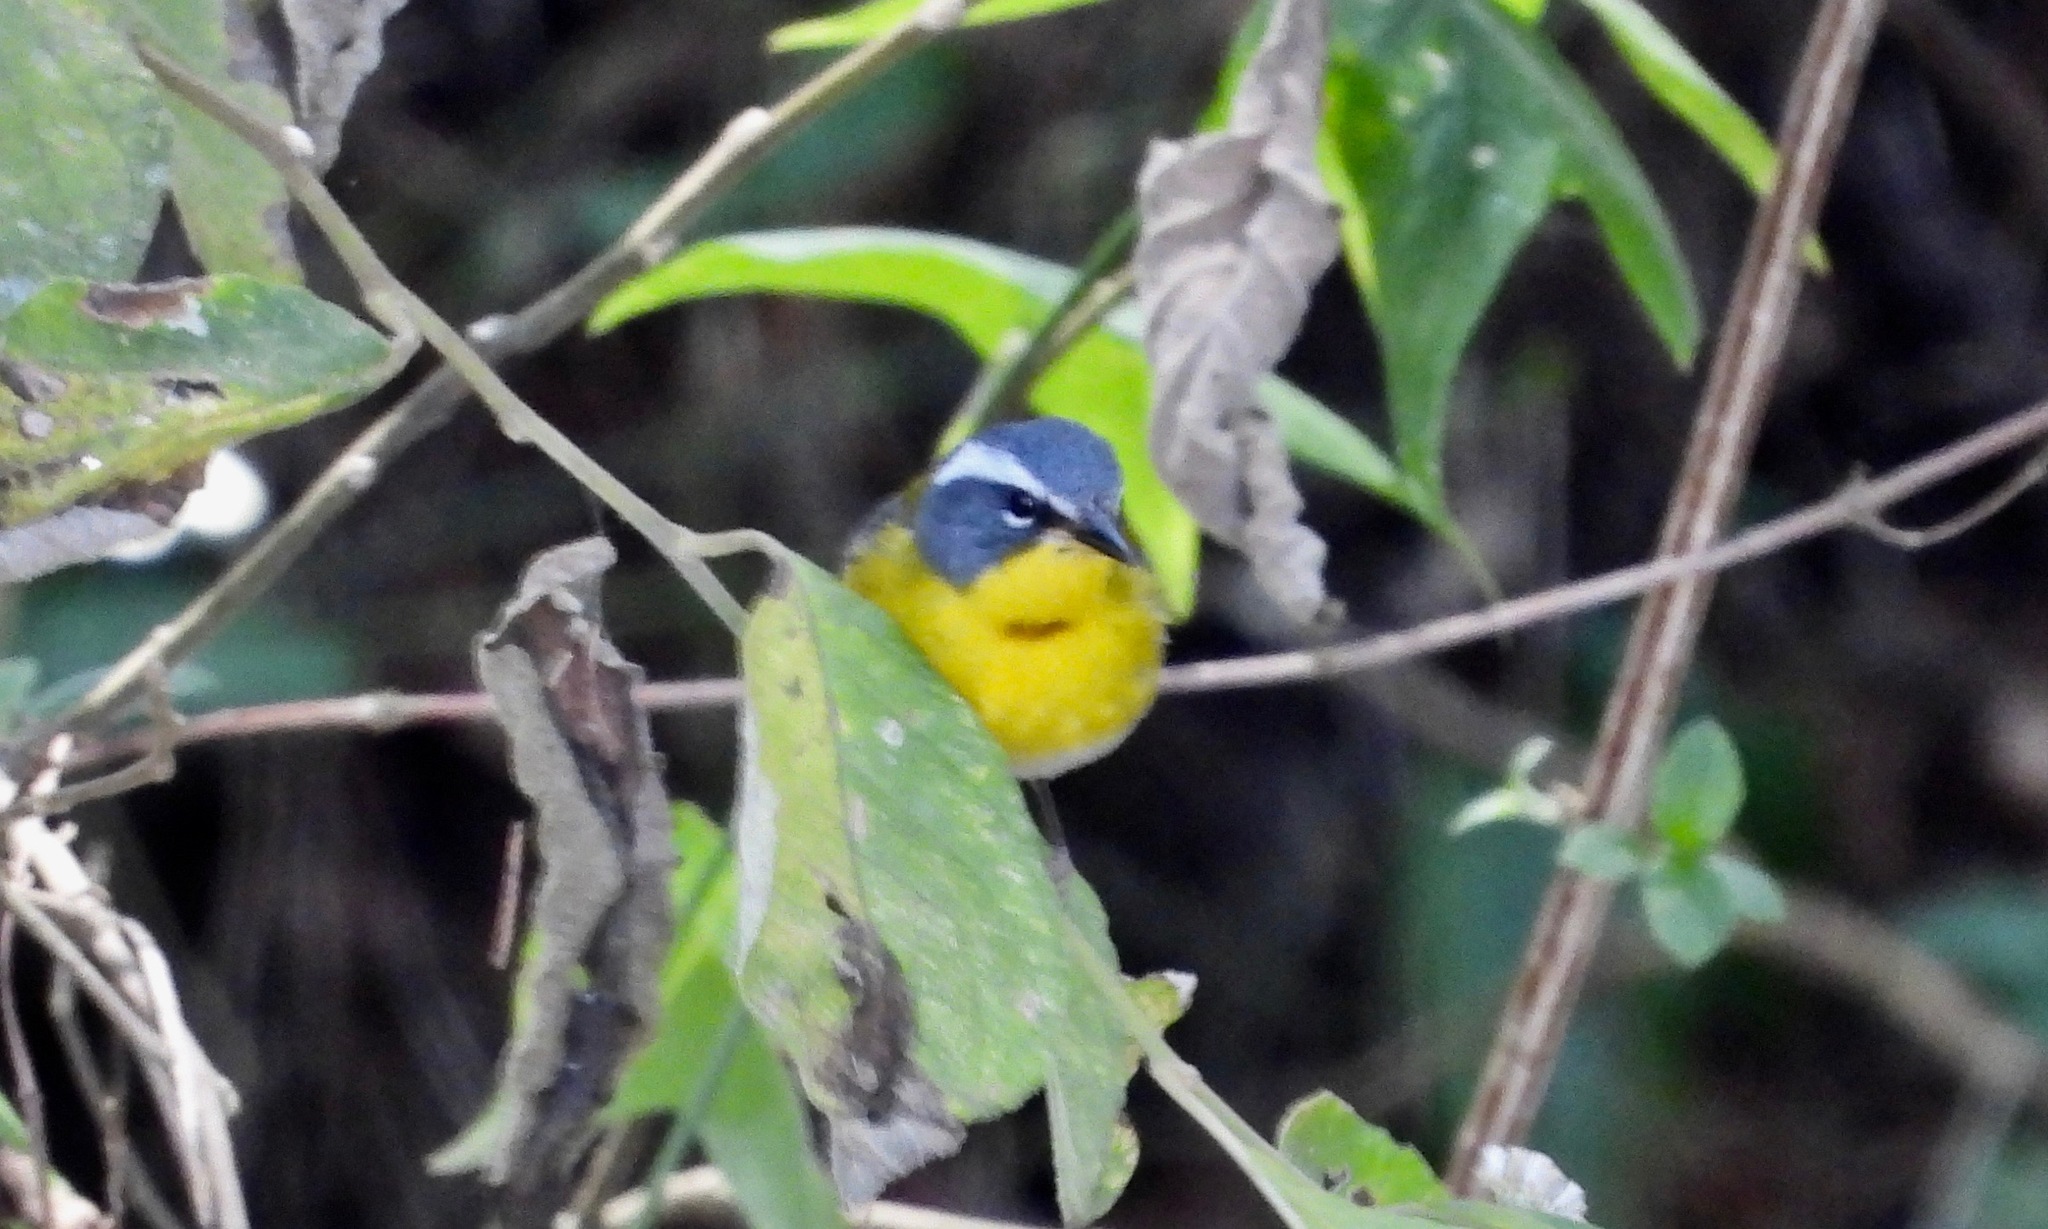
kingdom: Animalia
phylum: Chordata
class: Aves
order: Passeriformes
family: Parulidae
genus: Oreothlypis
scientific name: Oreothlypis superciliosa
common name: Crescent-chested warbler
